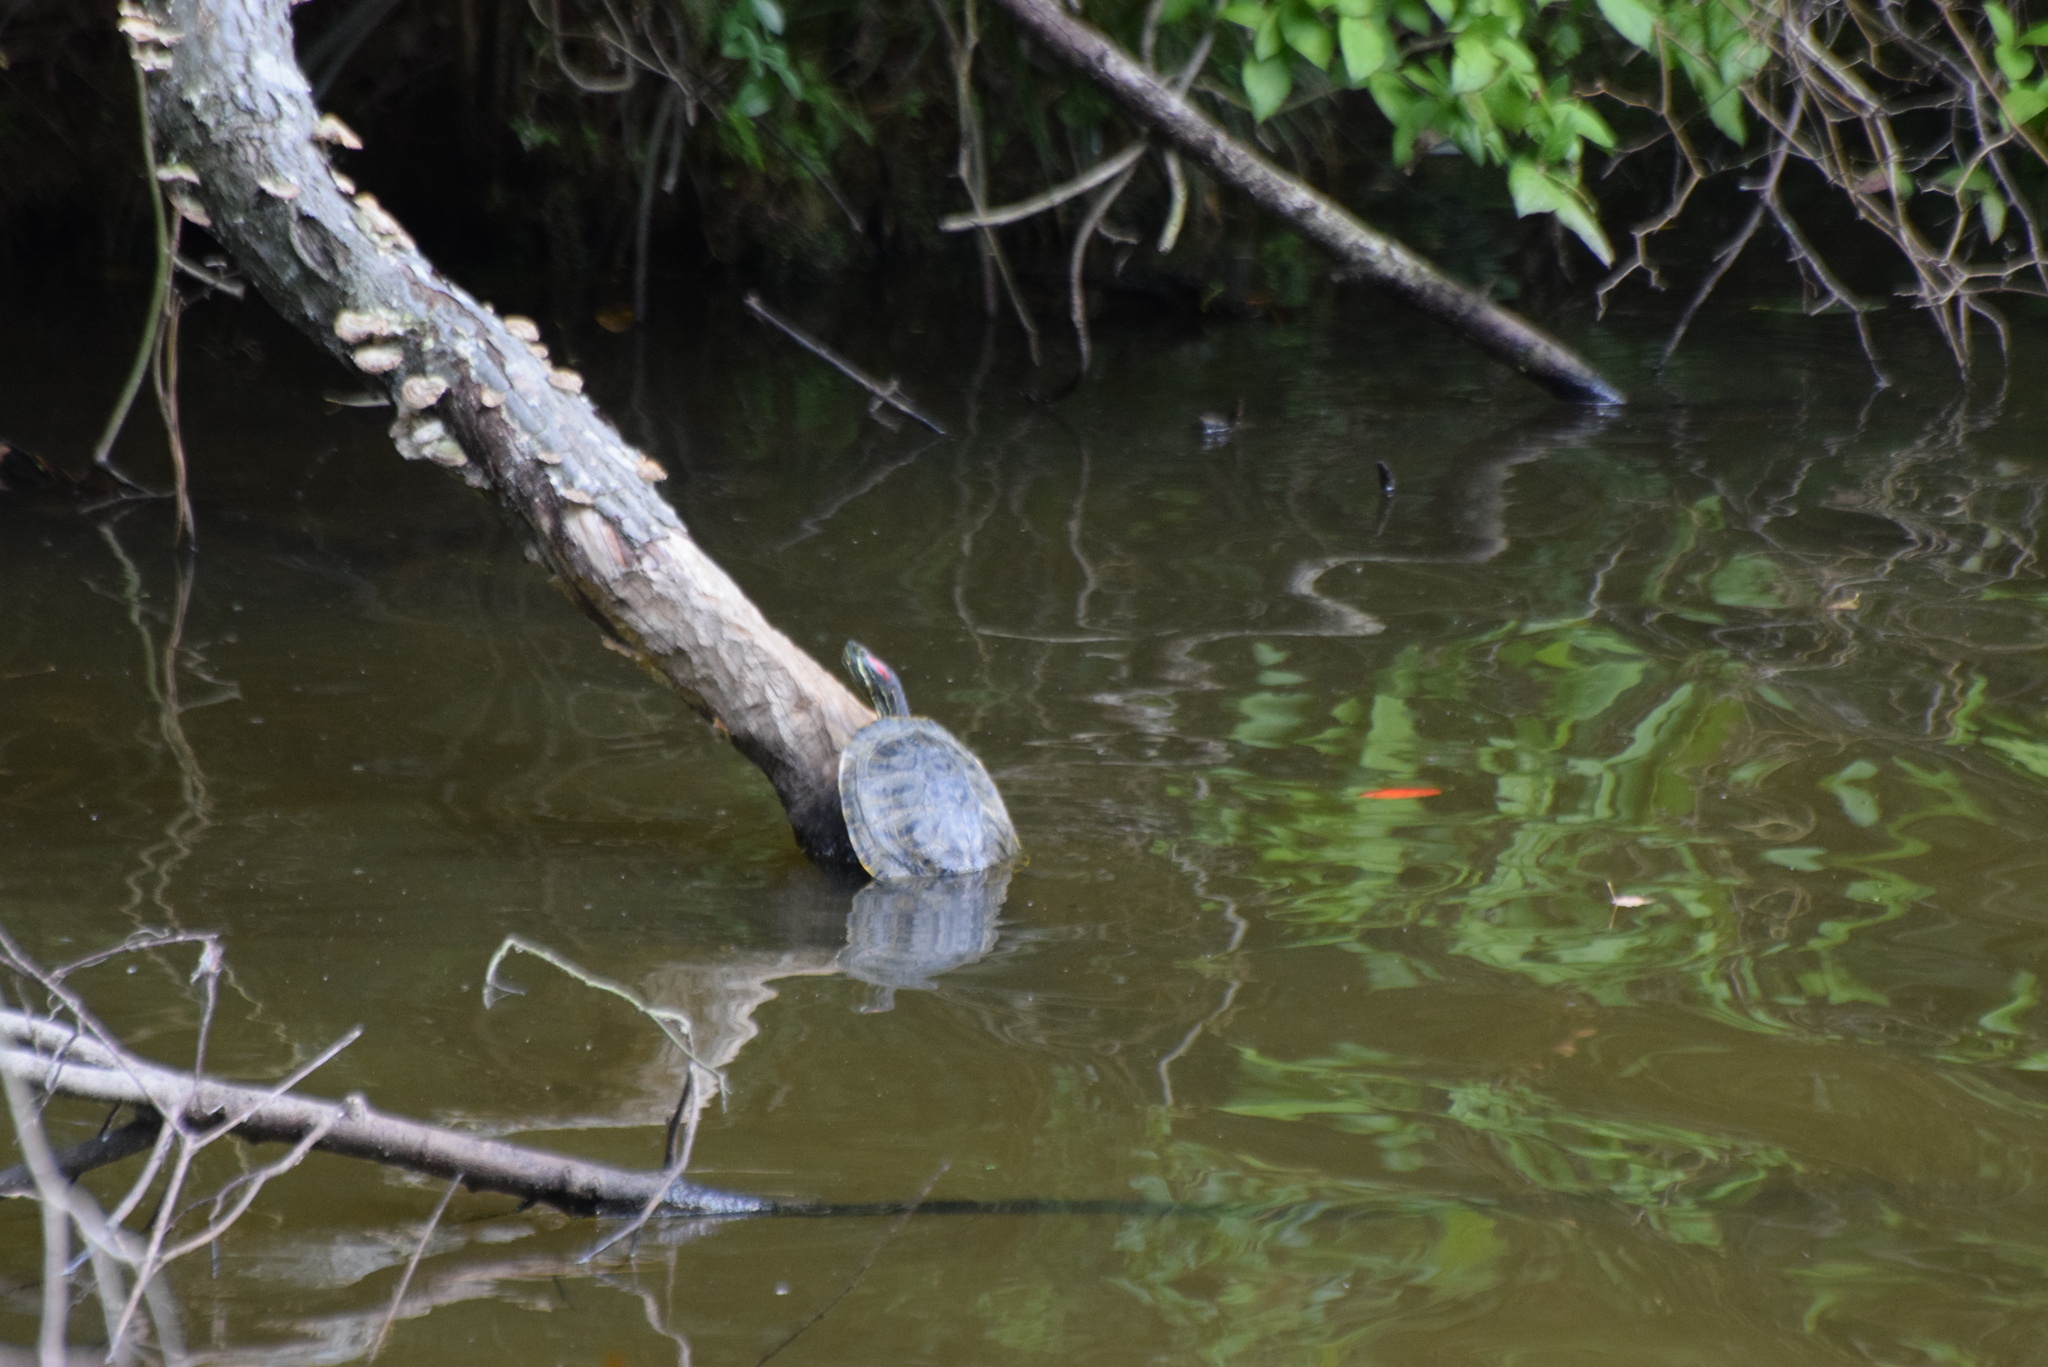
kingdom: Animalia
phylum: Chordata
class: Testudines
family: Emydidae
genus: Trachemys
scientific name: Trachemys scripta
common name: Slider
